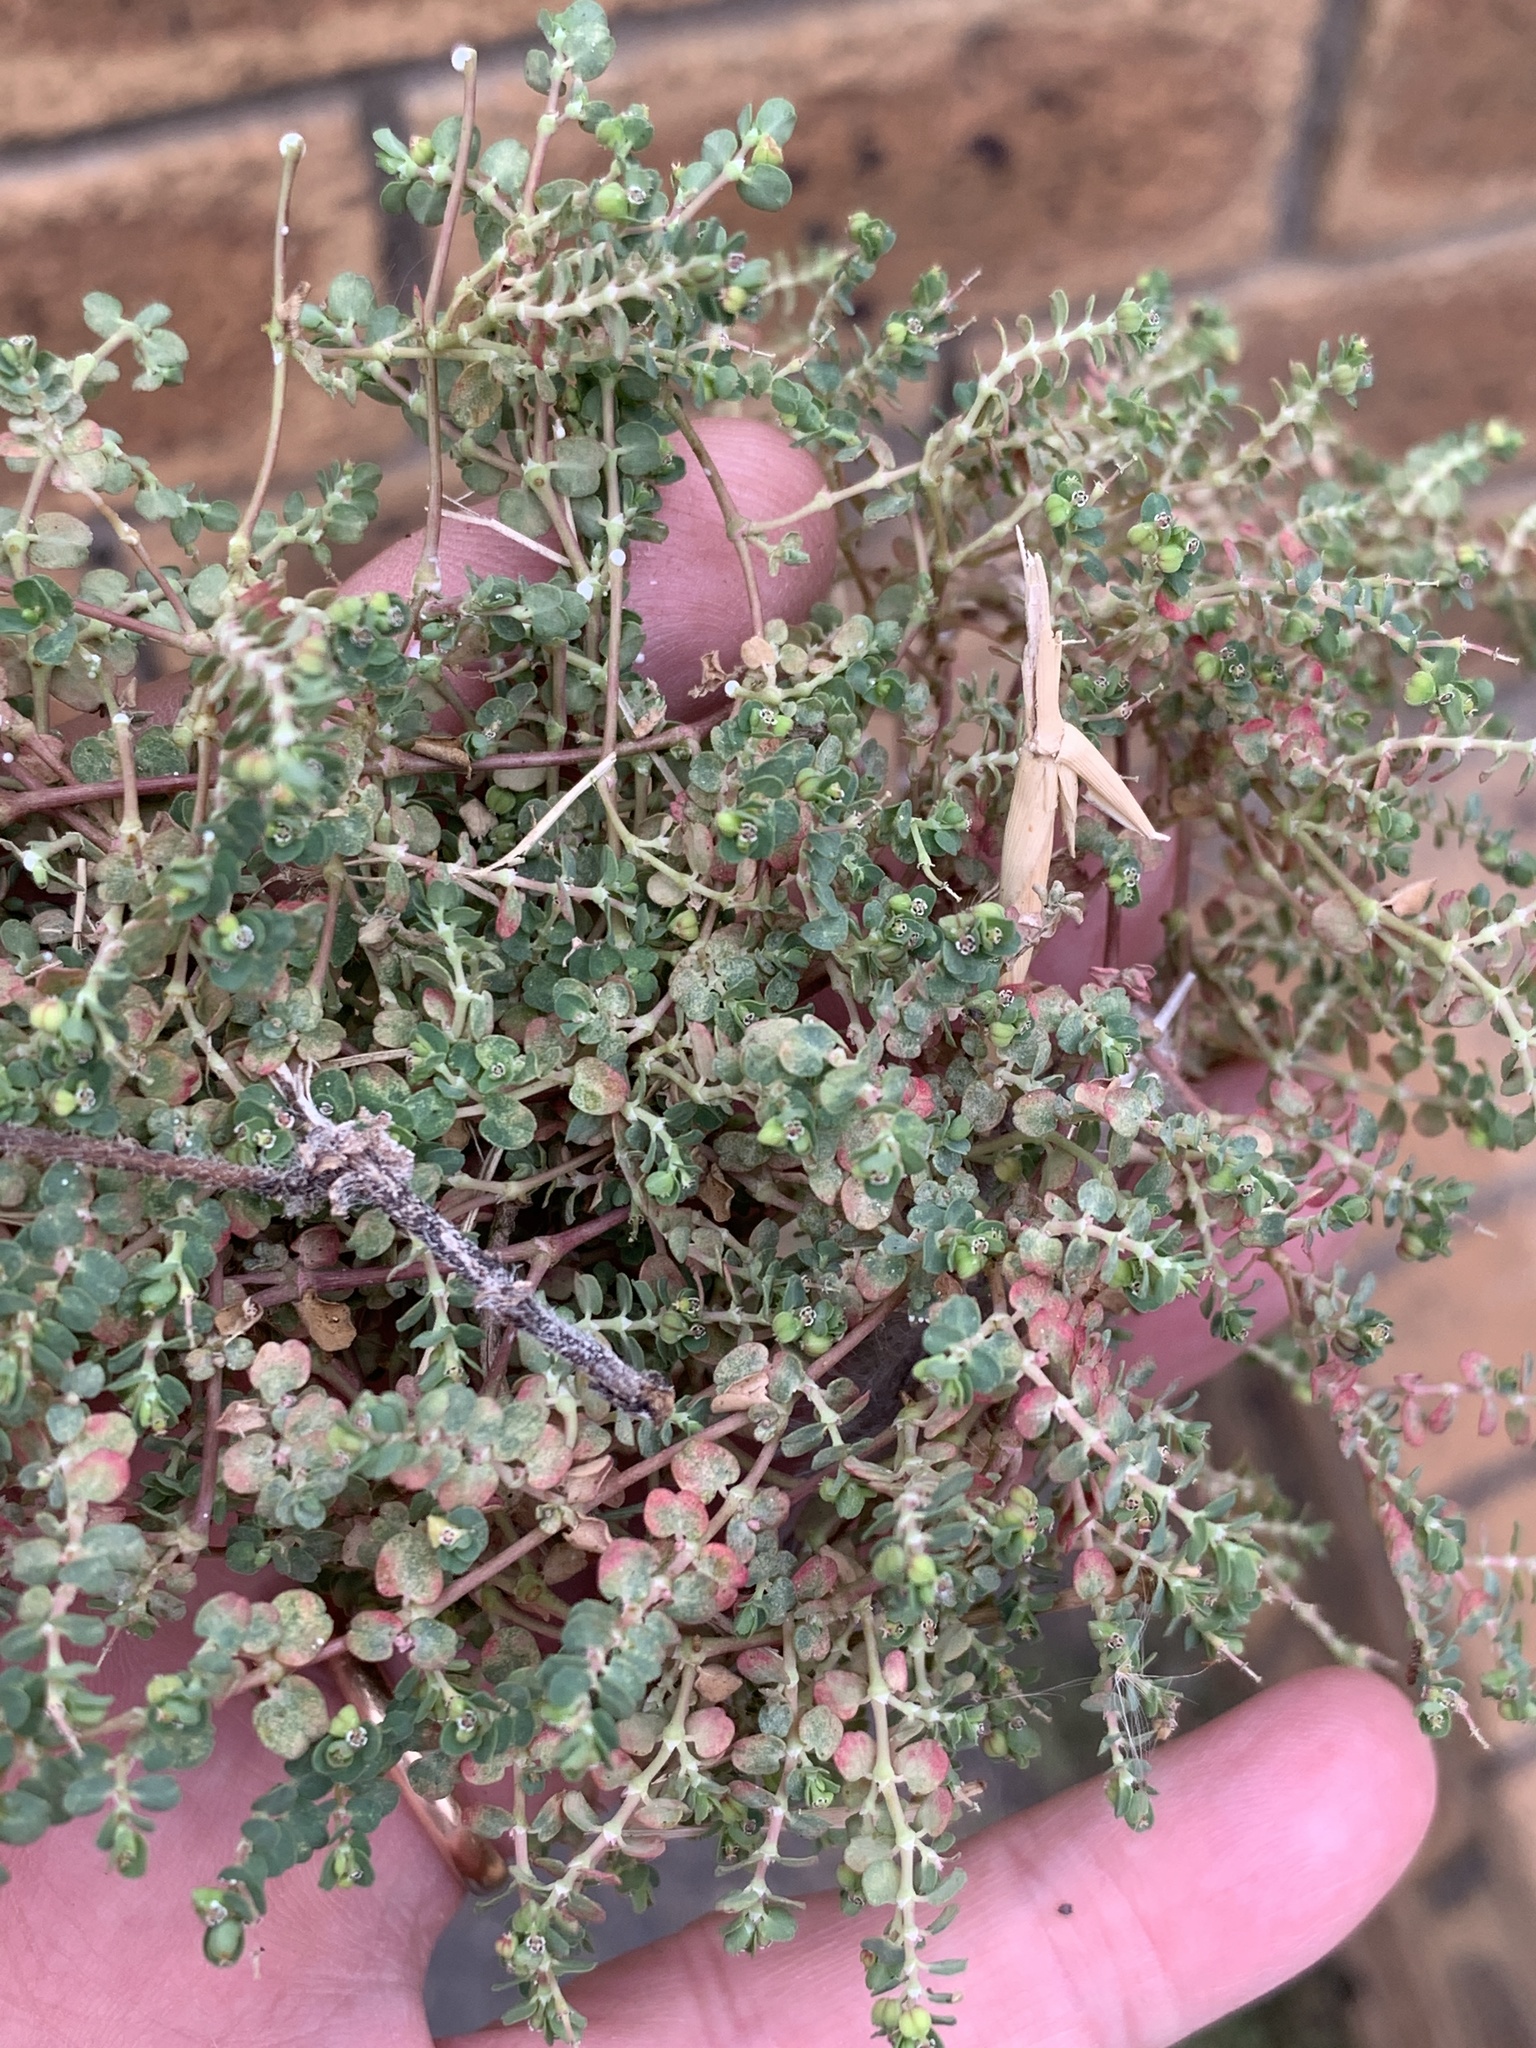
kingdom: Plantae
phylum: Tracheophyta
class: Magnoliopsida
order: Malpighiales
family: Euphorbiaceae
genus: Euphorbia
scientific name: Euphorbia serpens
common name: Matted sandmat
